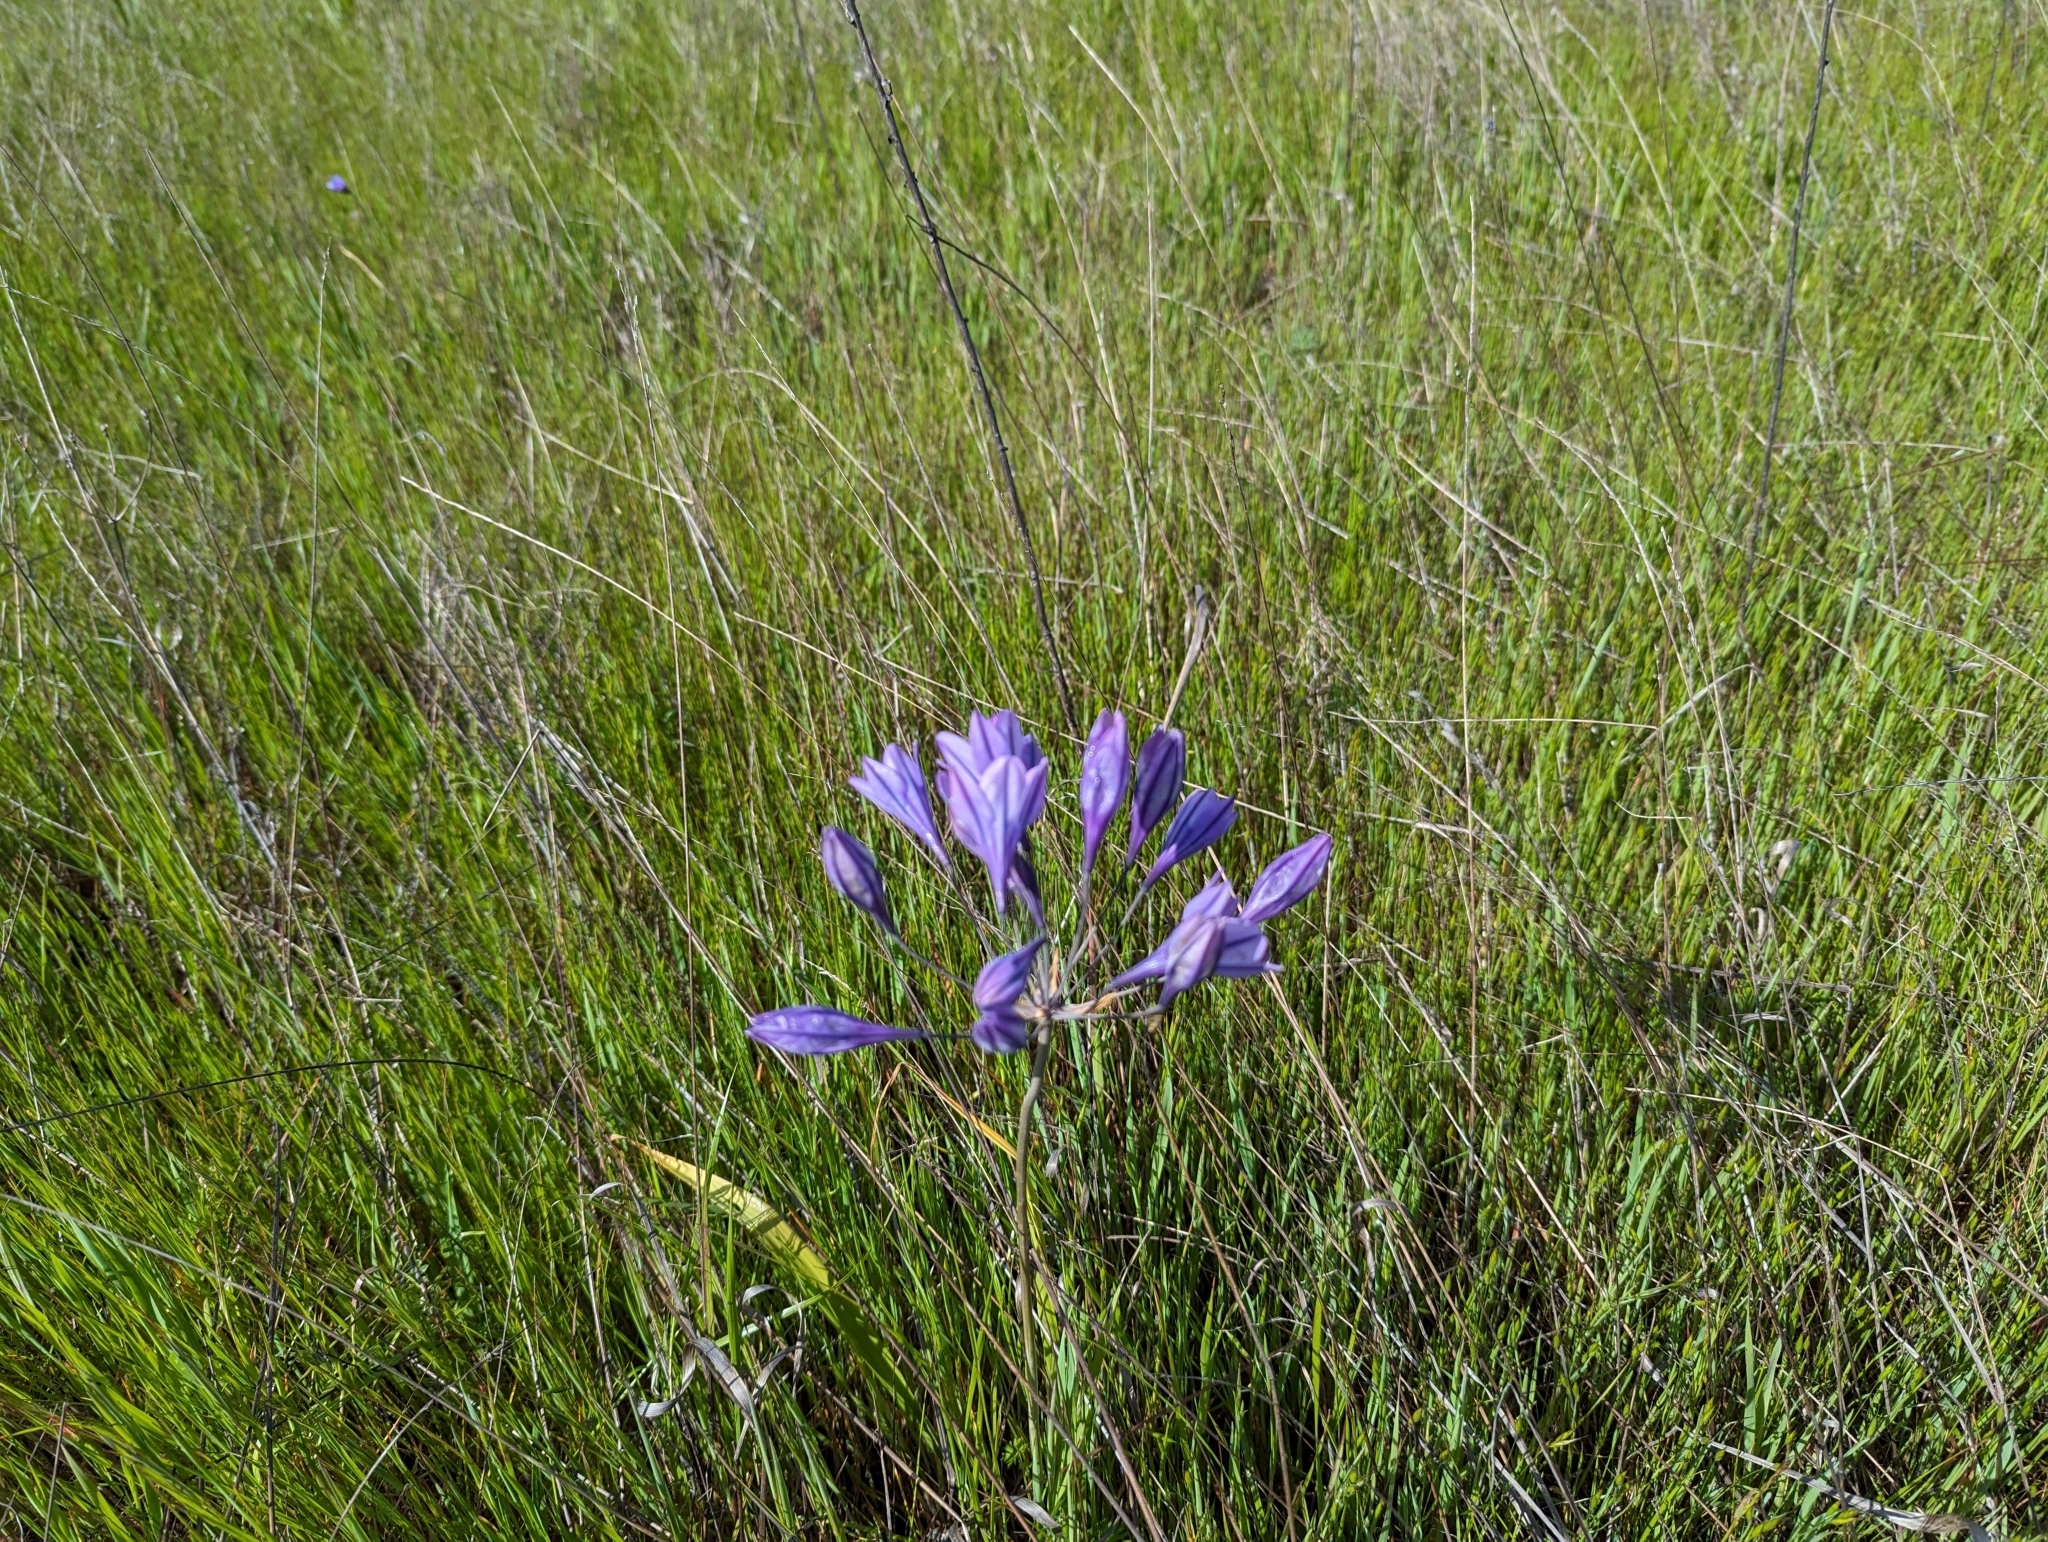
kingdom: Plantae
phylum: Tracheophyta
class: Liliopsida
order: Asparagales
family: Asparagaceae
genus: Triteleia
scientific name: Triteleia laxa
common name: Triplet-lily
